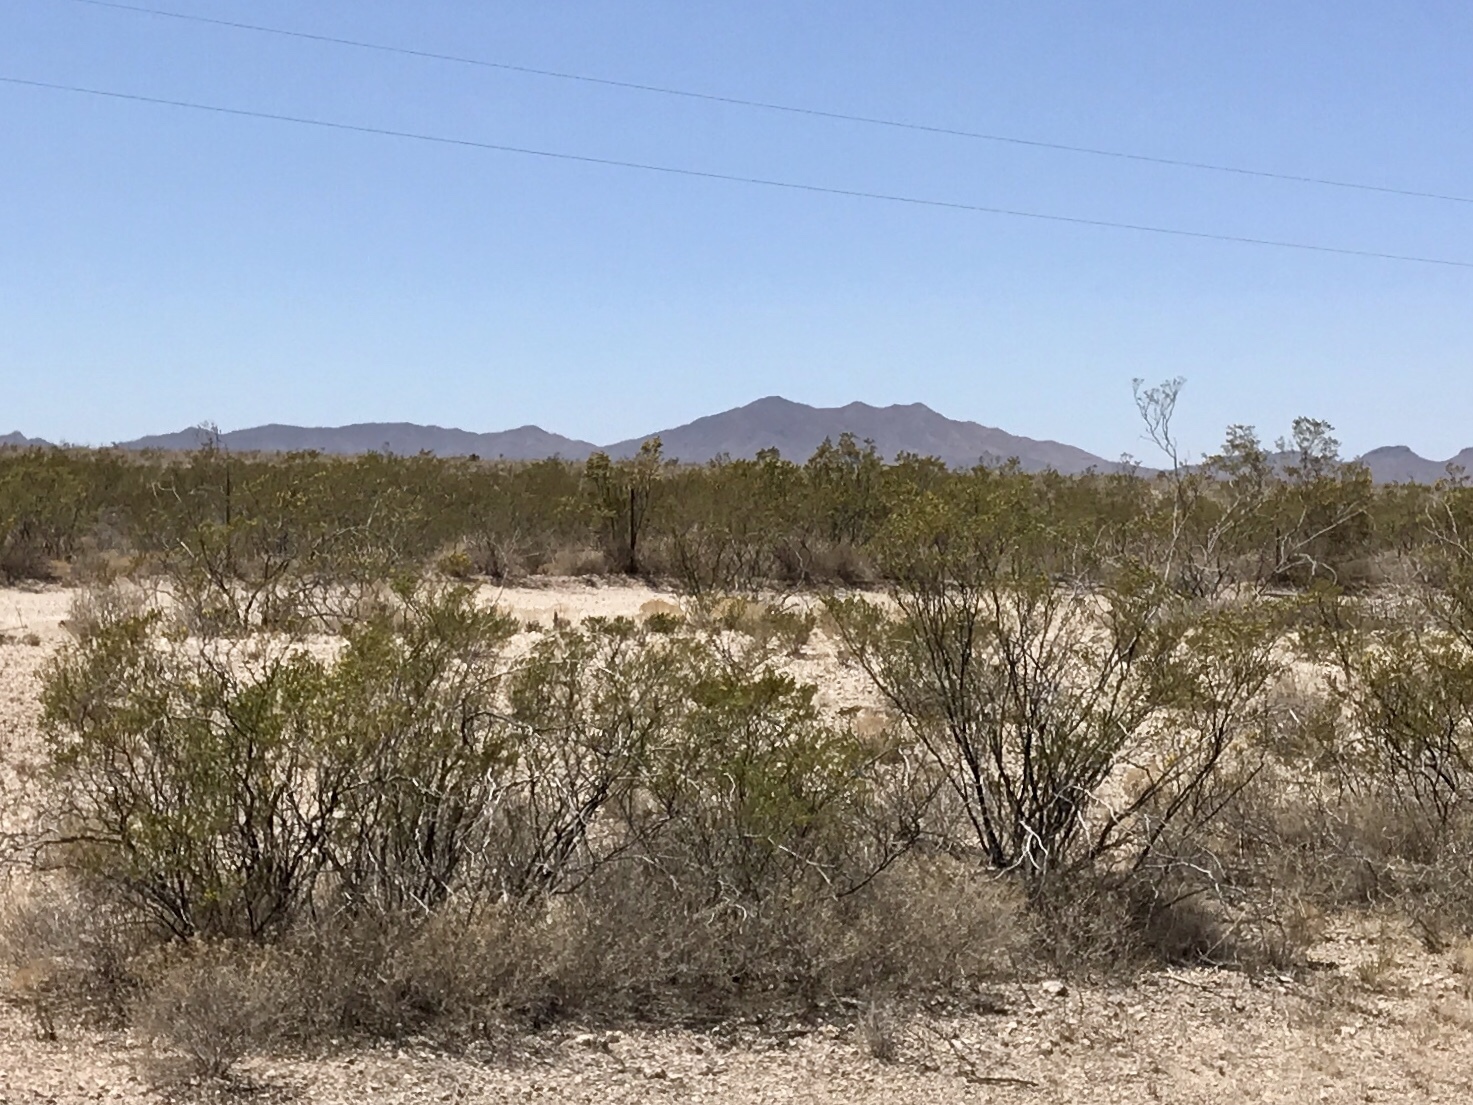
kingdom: Plantae
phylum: Tracheophyta
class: Magnoliopsida
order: Zygophyllales
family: Zygophyllaceae
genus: Larrea
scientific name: Larrea tridentata
